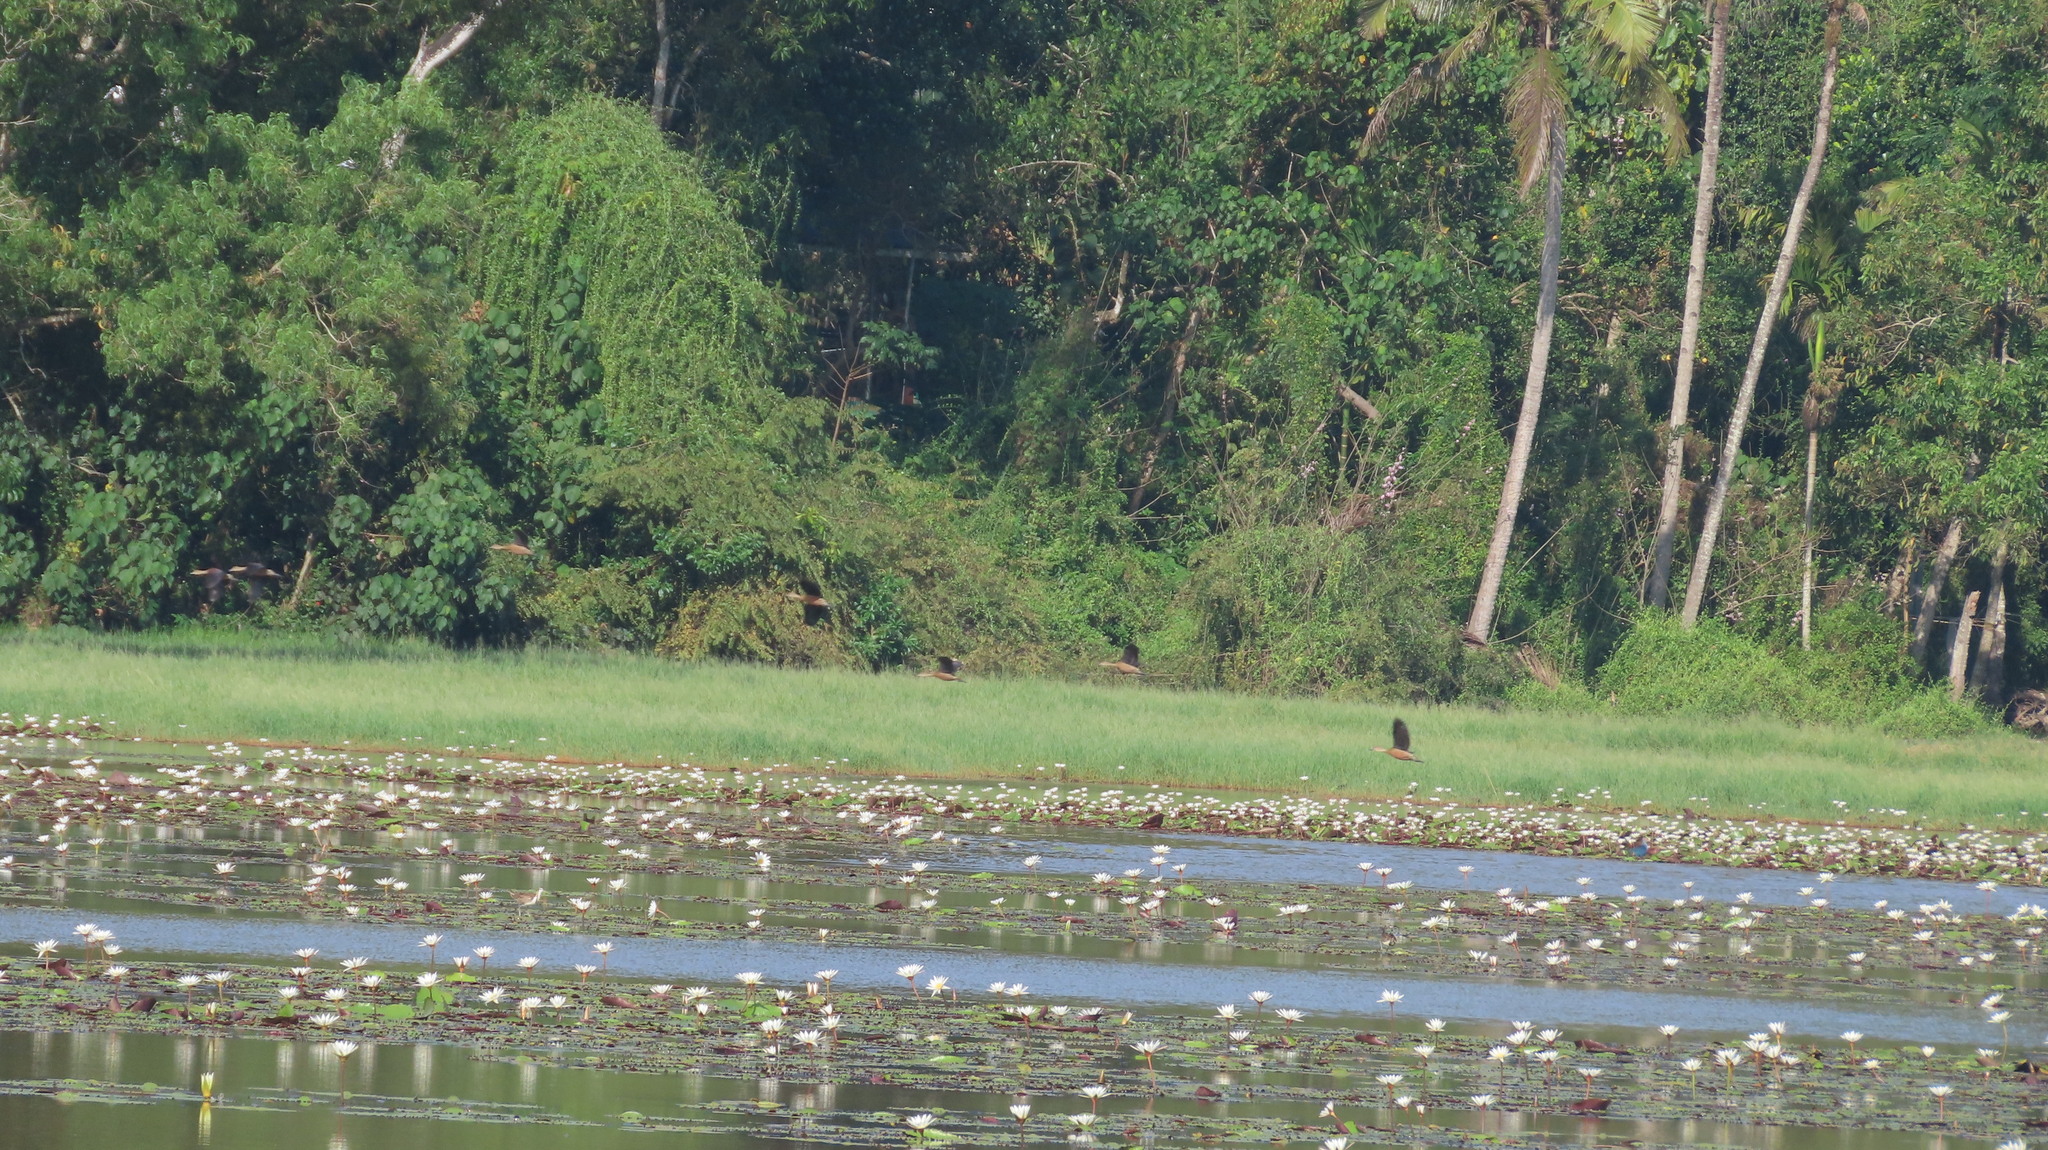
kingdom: Animalia
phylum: Chordata
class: Aves
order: Anseriformes
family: Anatidae
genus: Dendrocygna
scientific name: Dendrocygna javanica
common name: Lesser whistling-duck
